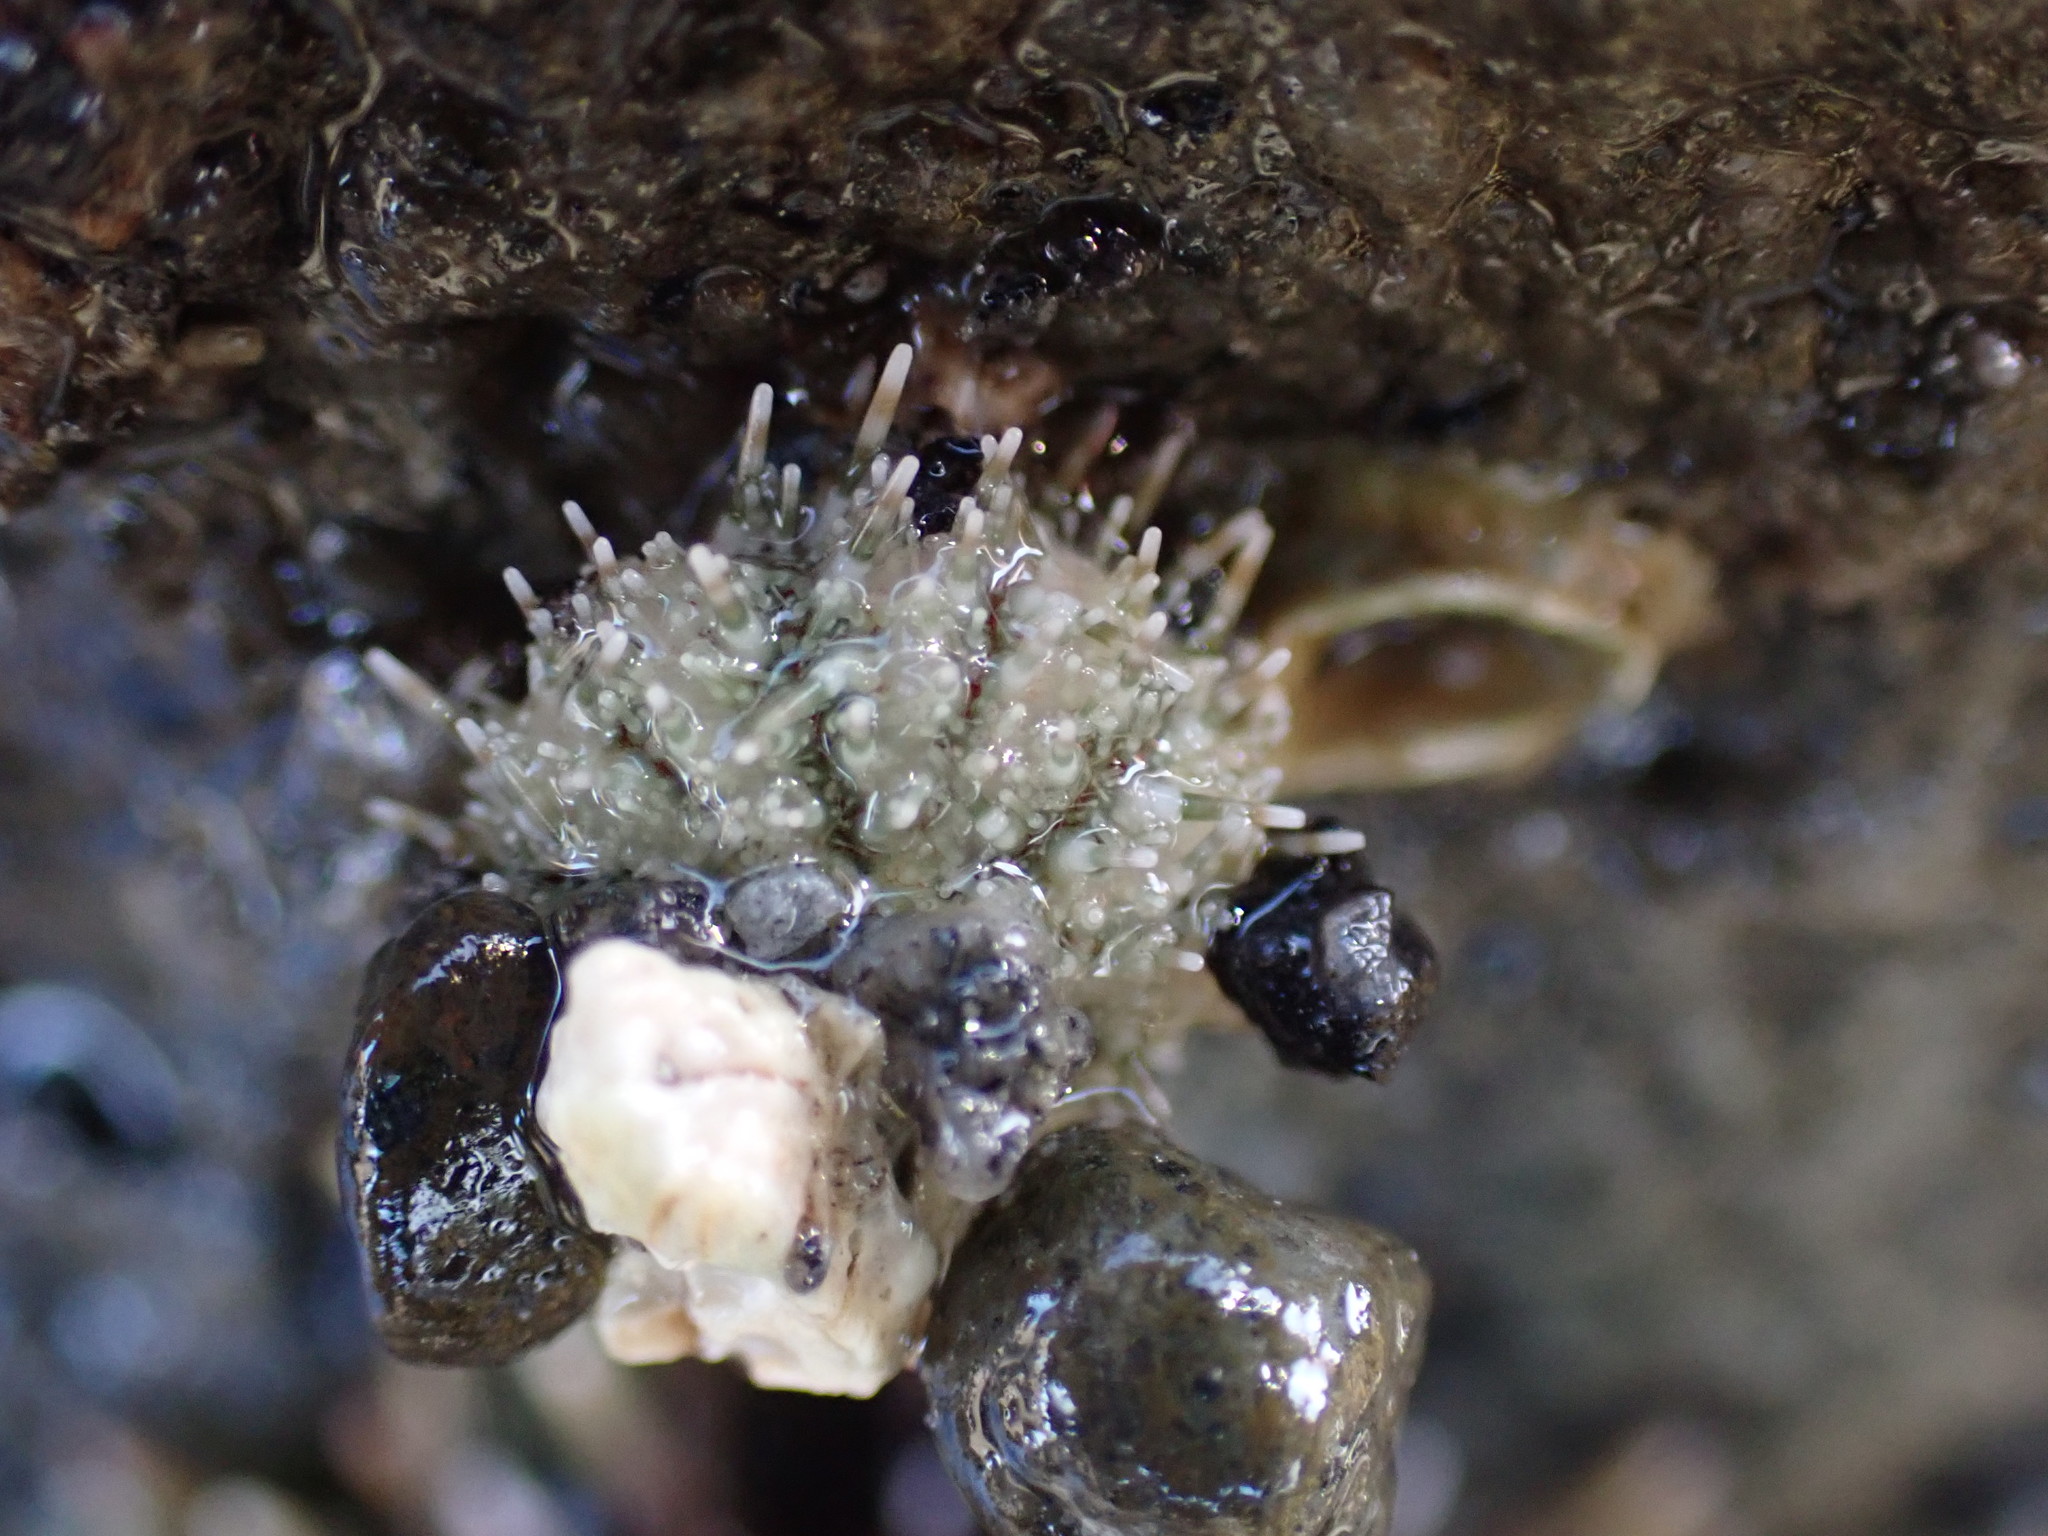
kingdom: Animalia
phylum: Echinodermata
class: Echinoidea
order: Camarodonta
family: Echinometridae
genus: Evechinus
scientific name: Evechinus chloroticus
